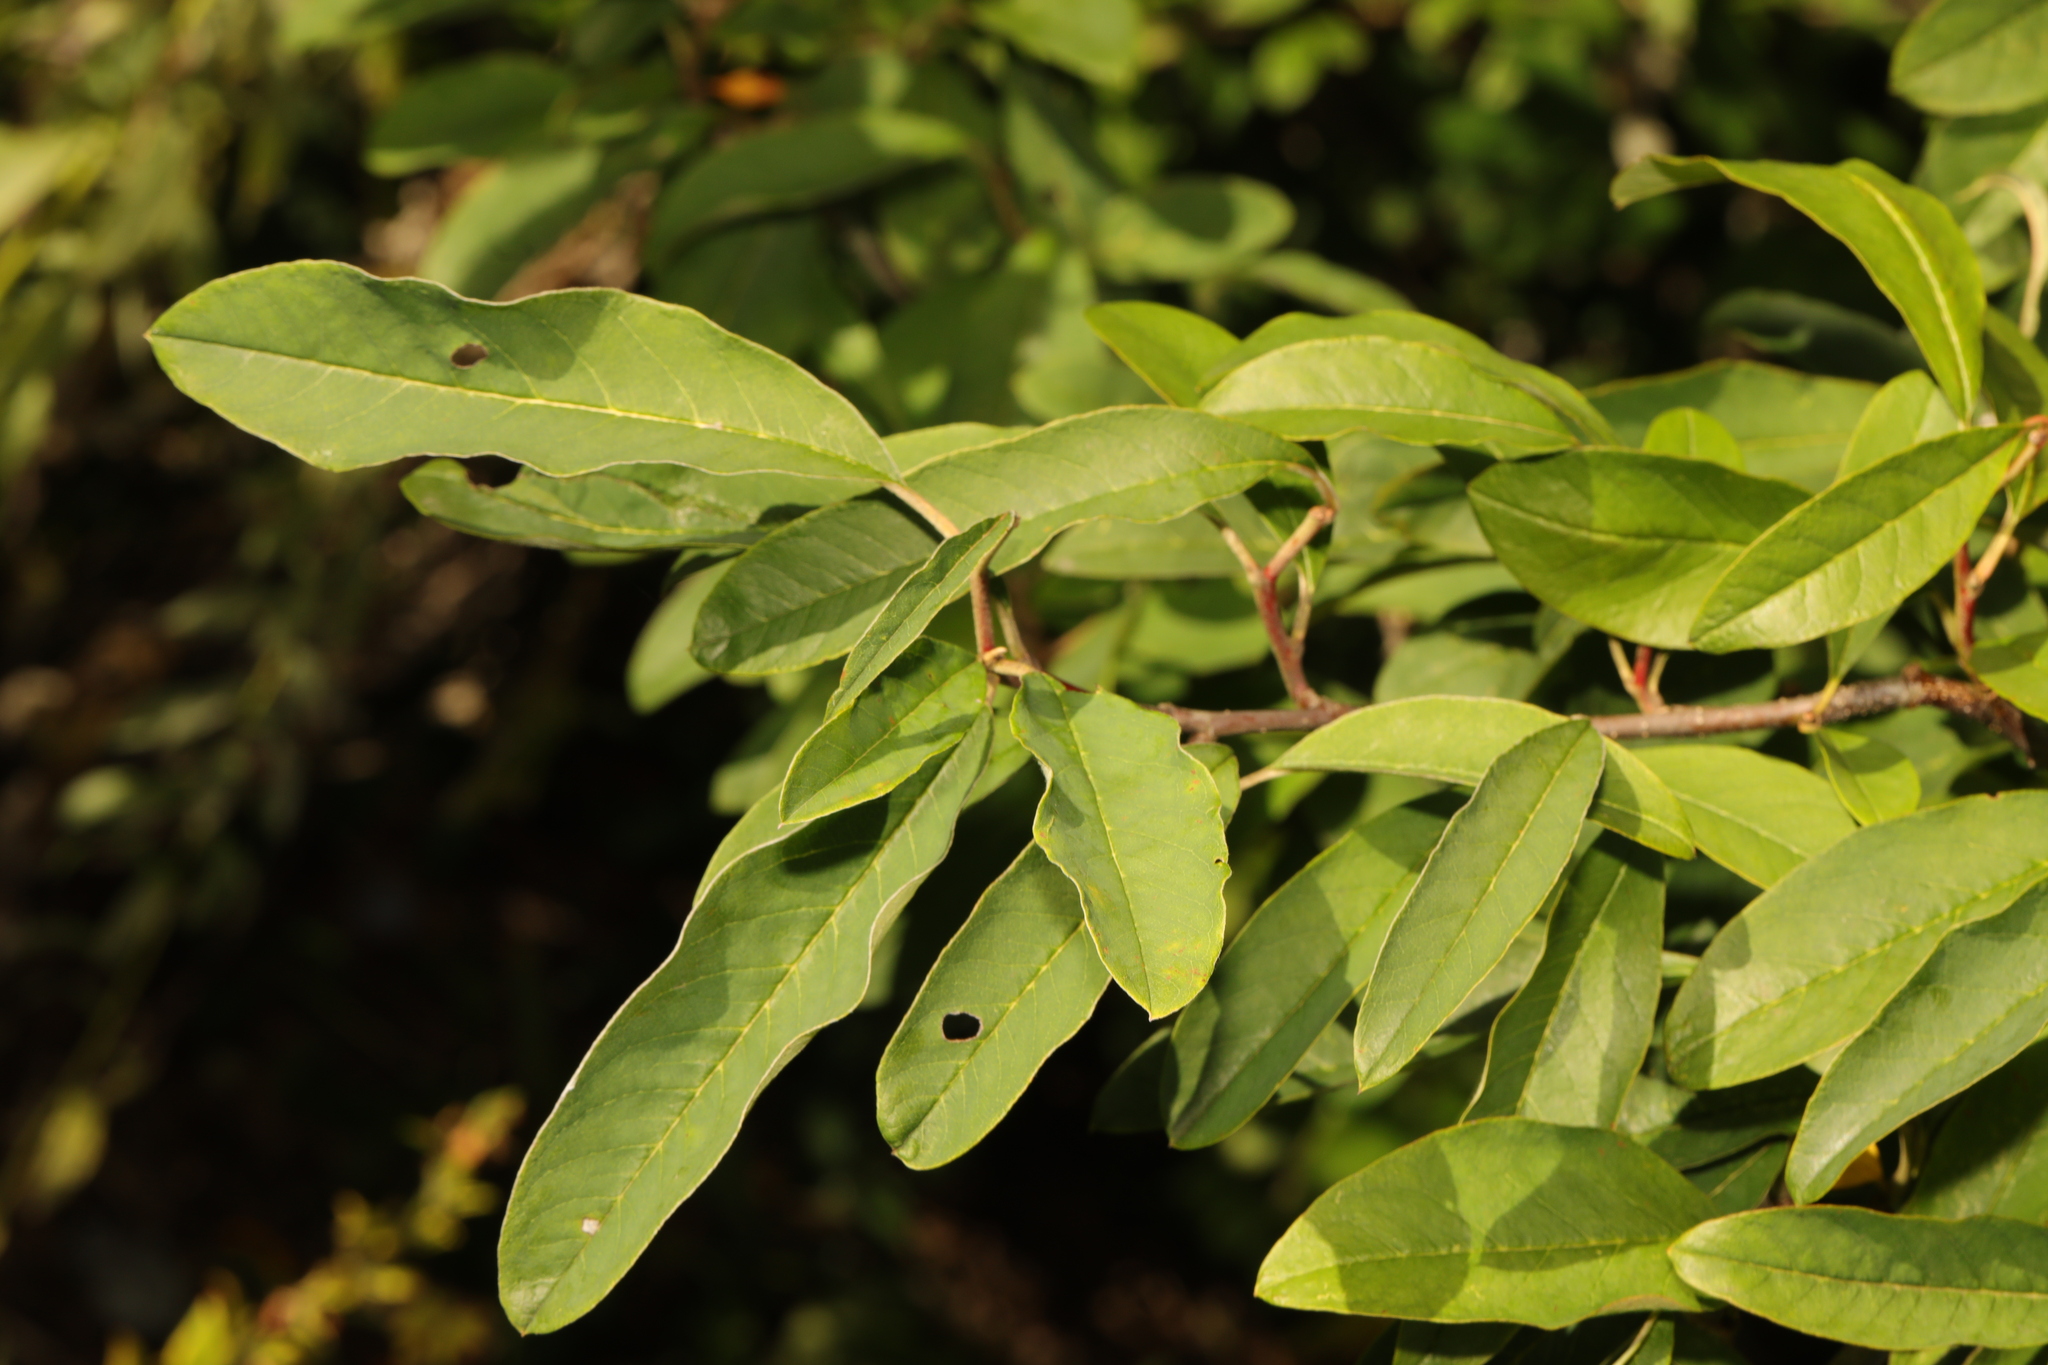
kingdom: Plantae
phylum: Tracheophyta
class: Magnoliopsida
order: Rosales
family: Rosaceae
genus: Prunus
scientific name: Prunus padus
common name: Bird cherry
